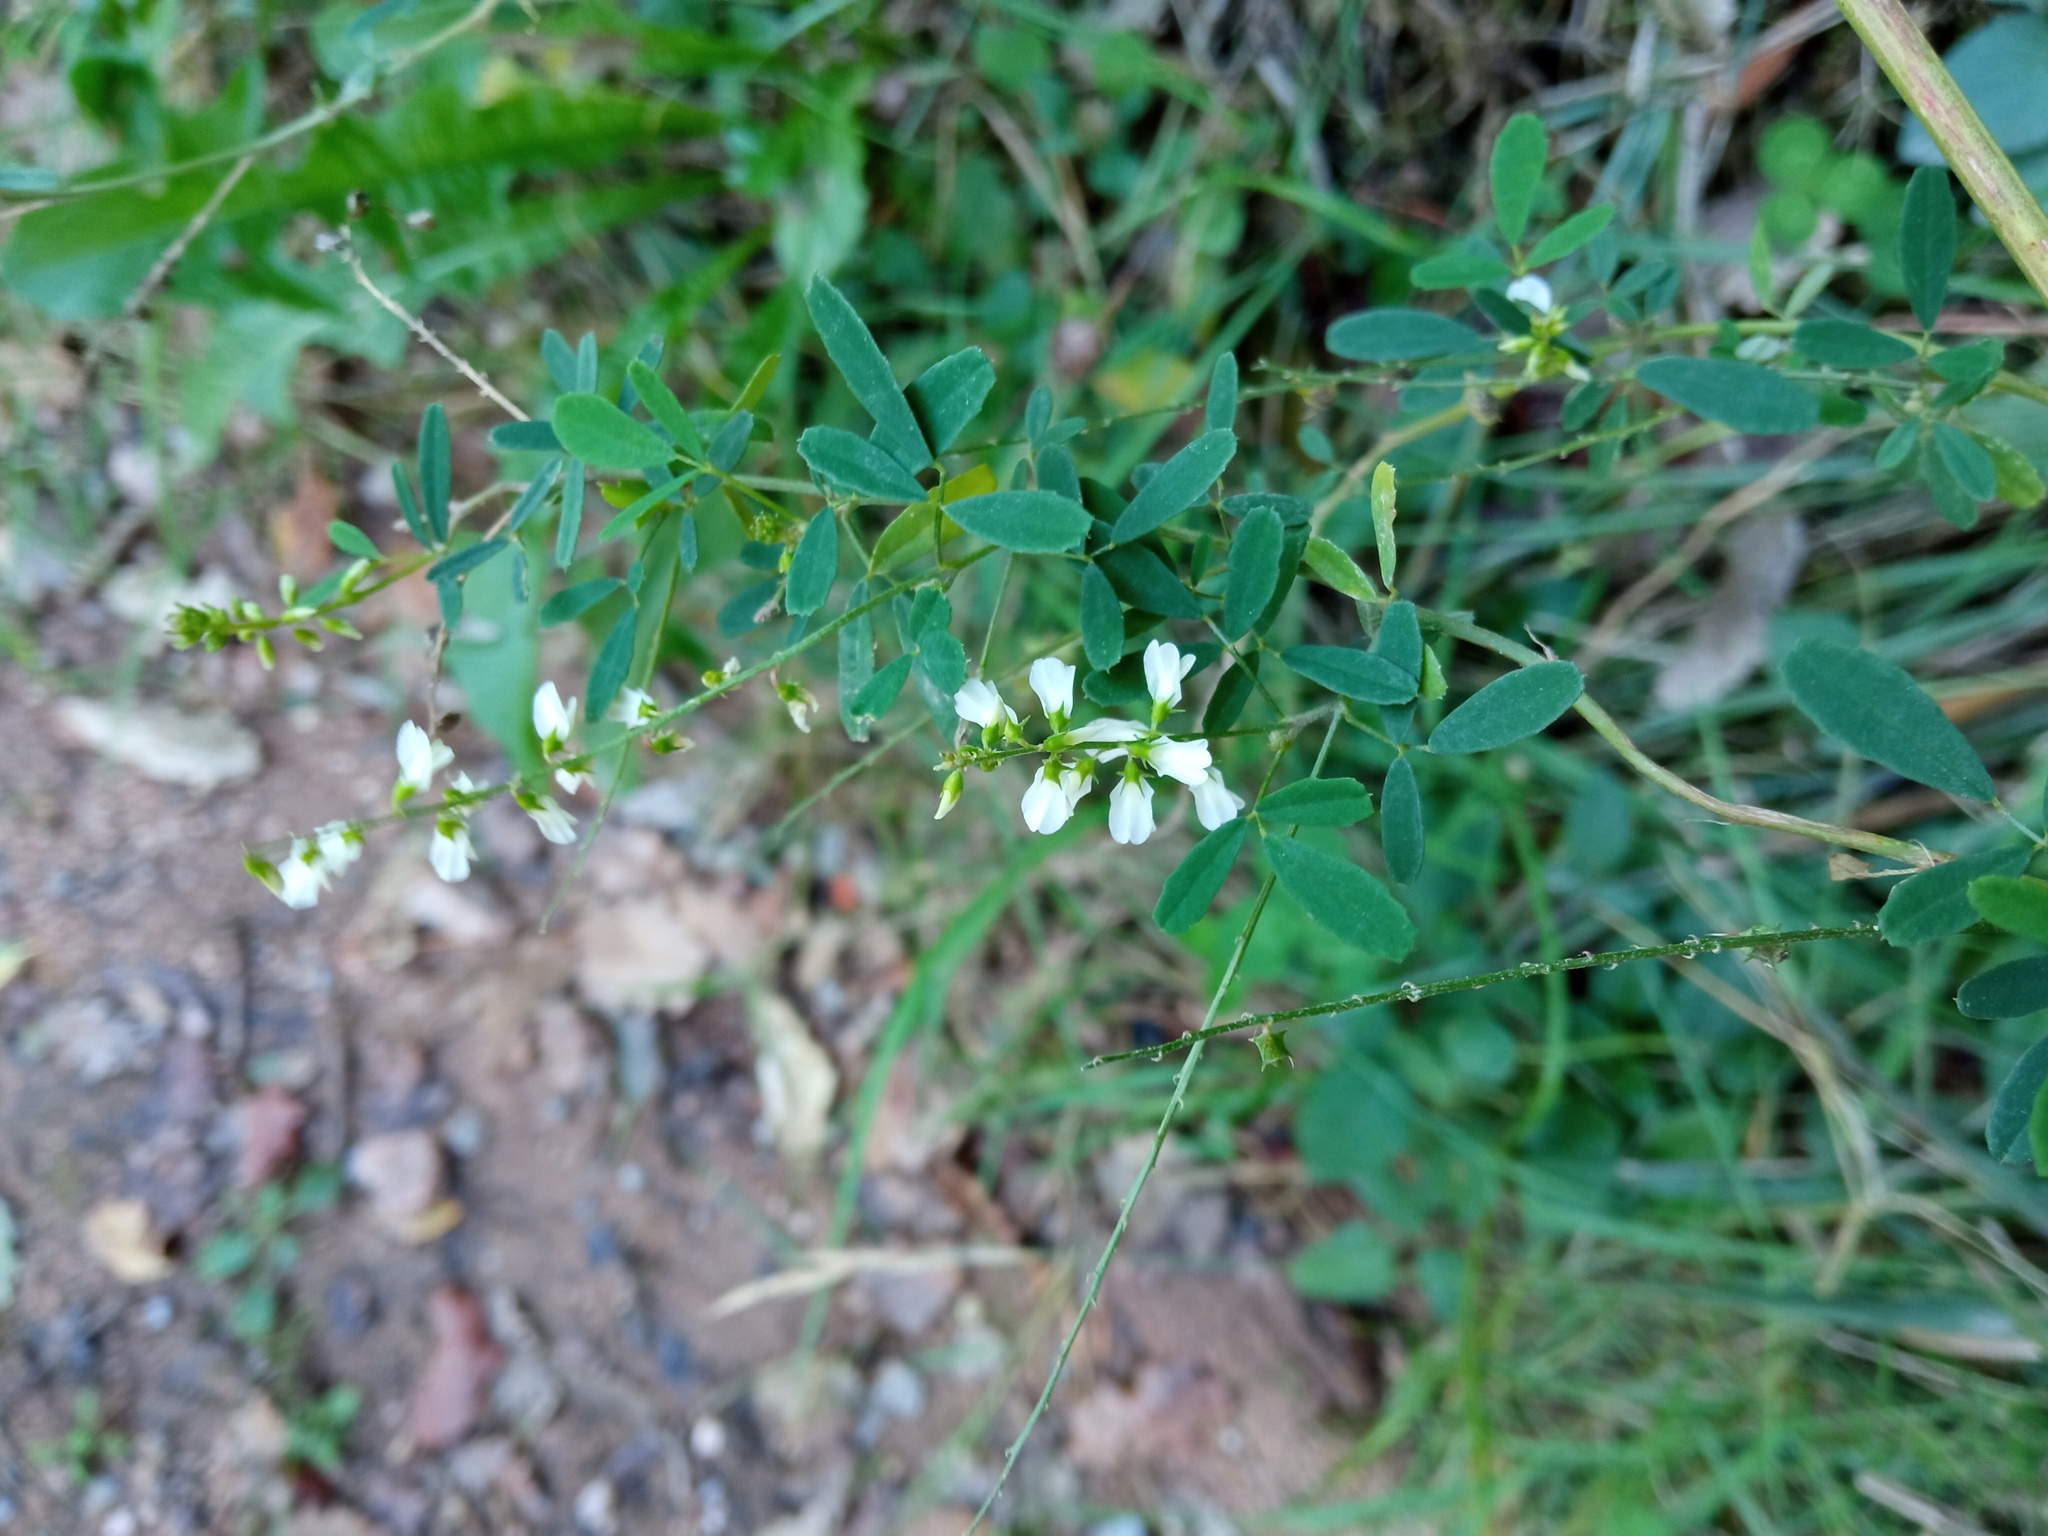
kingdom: Plantae
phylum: Tracheophyta
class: Magnoliopsida
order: Fabales
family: Fabaceae
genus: Melilotus
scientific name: Melilotus albus
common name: White melilot
